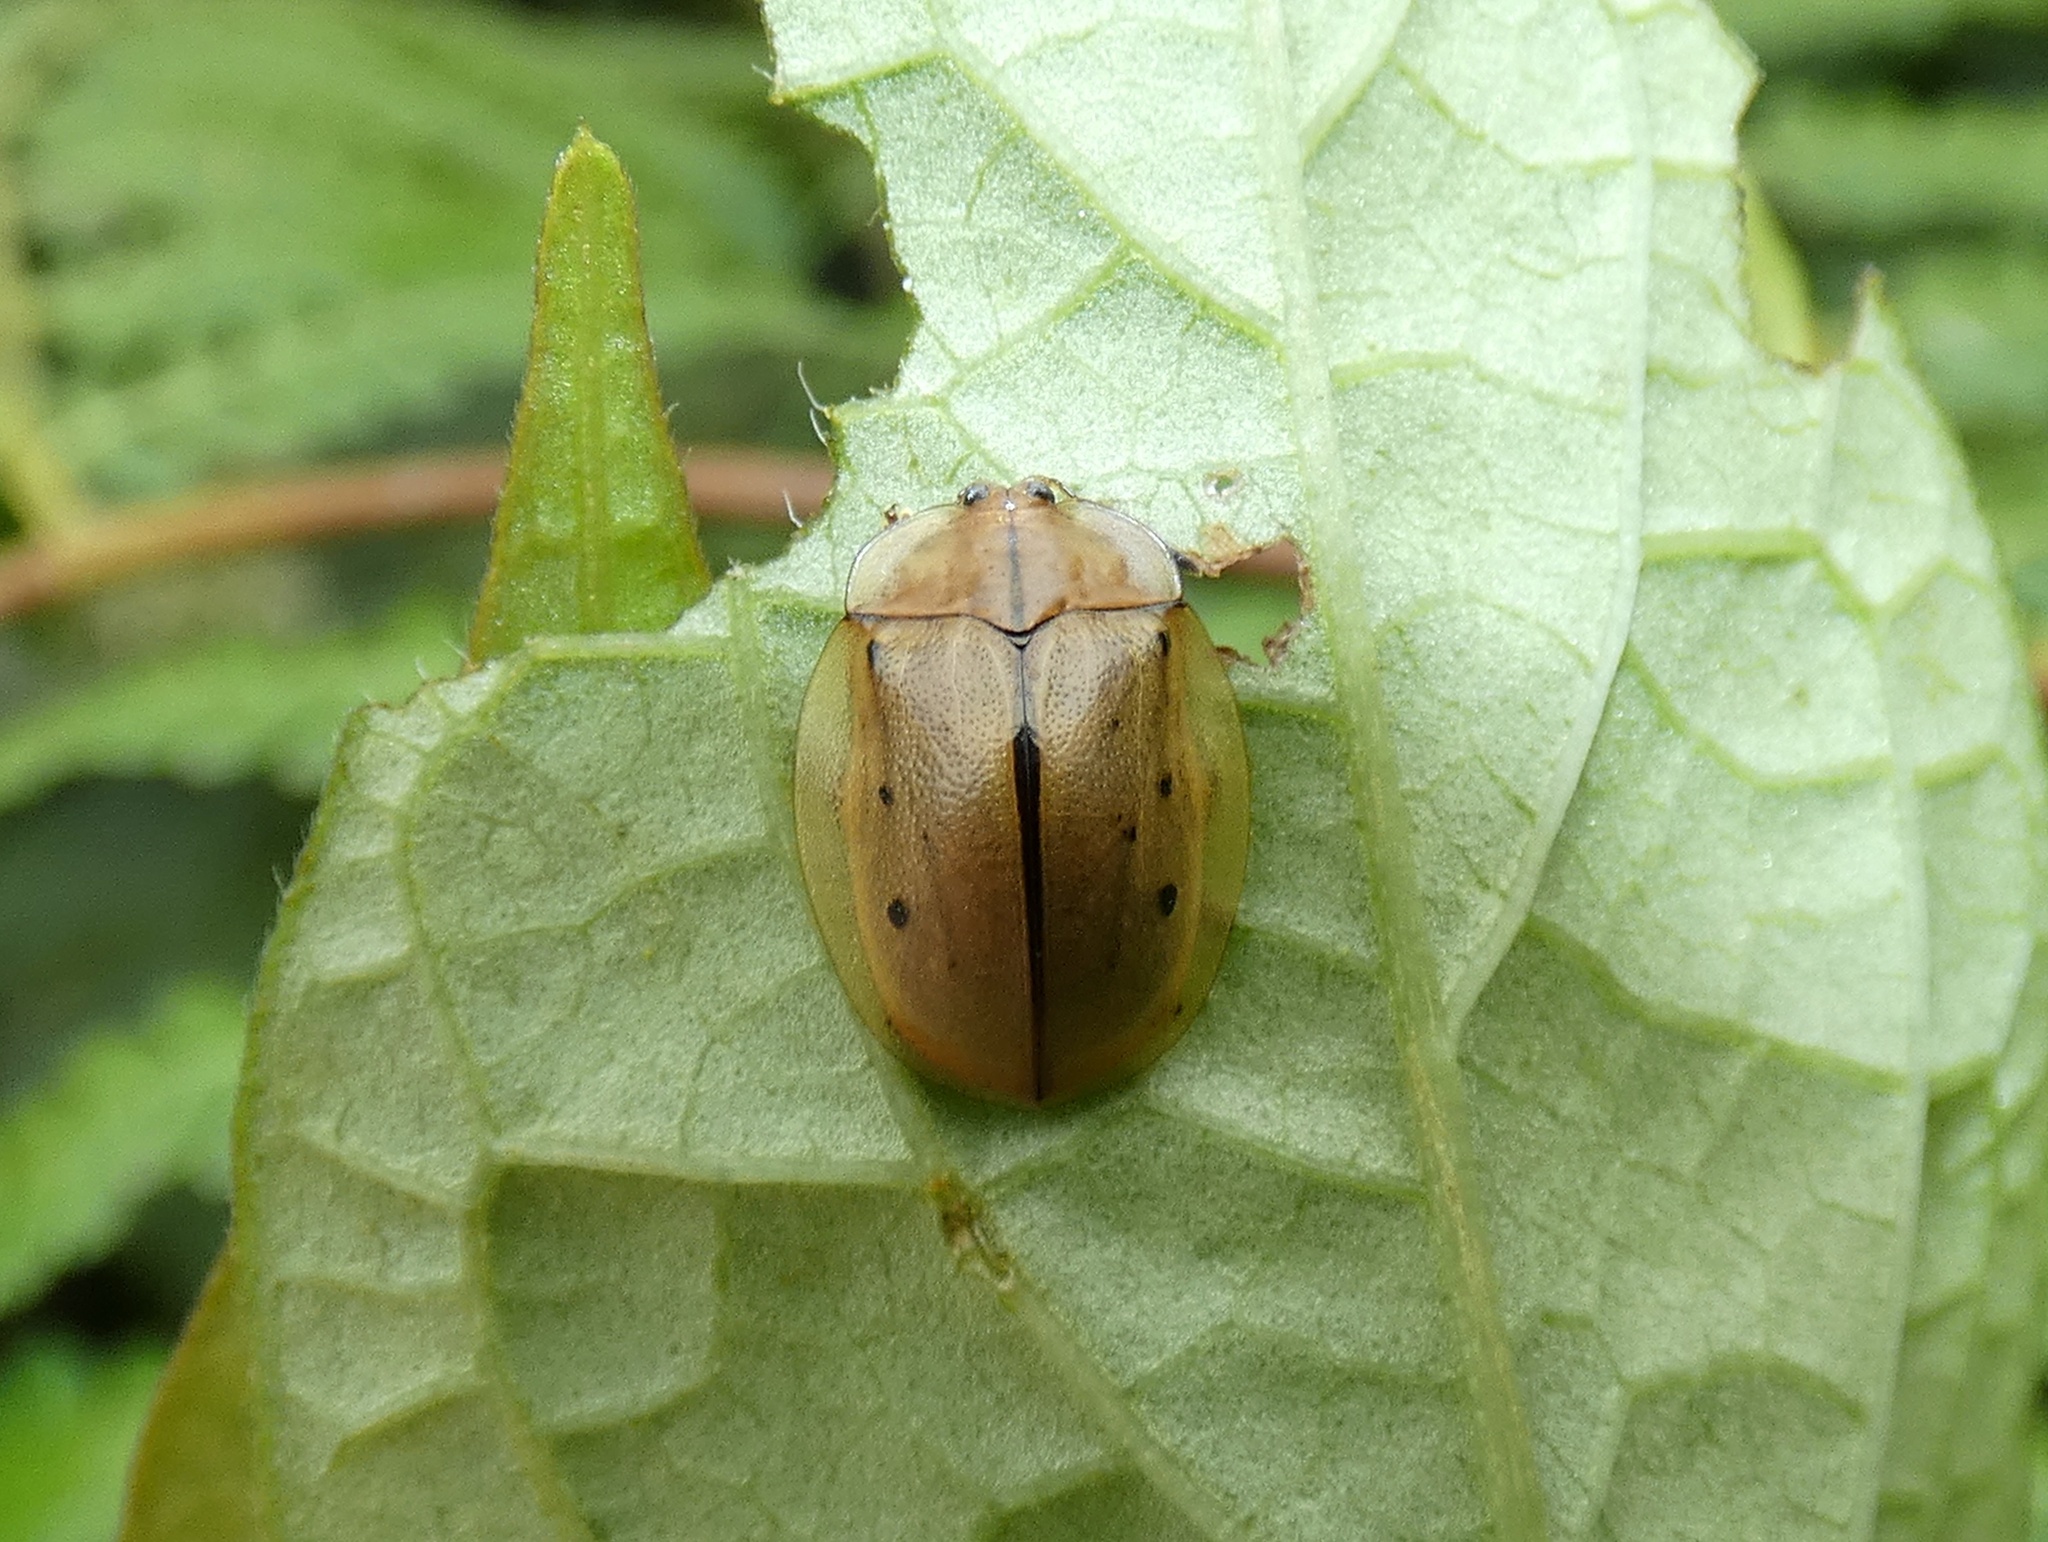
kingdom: Animalia
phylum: Arthropoda
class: Insecta
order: Coleoptera
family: Chrysomelidae
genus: Stolas
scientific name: Stolas pertusa
